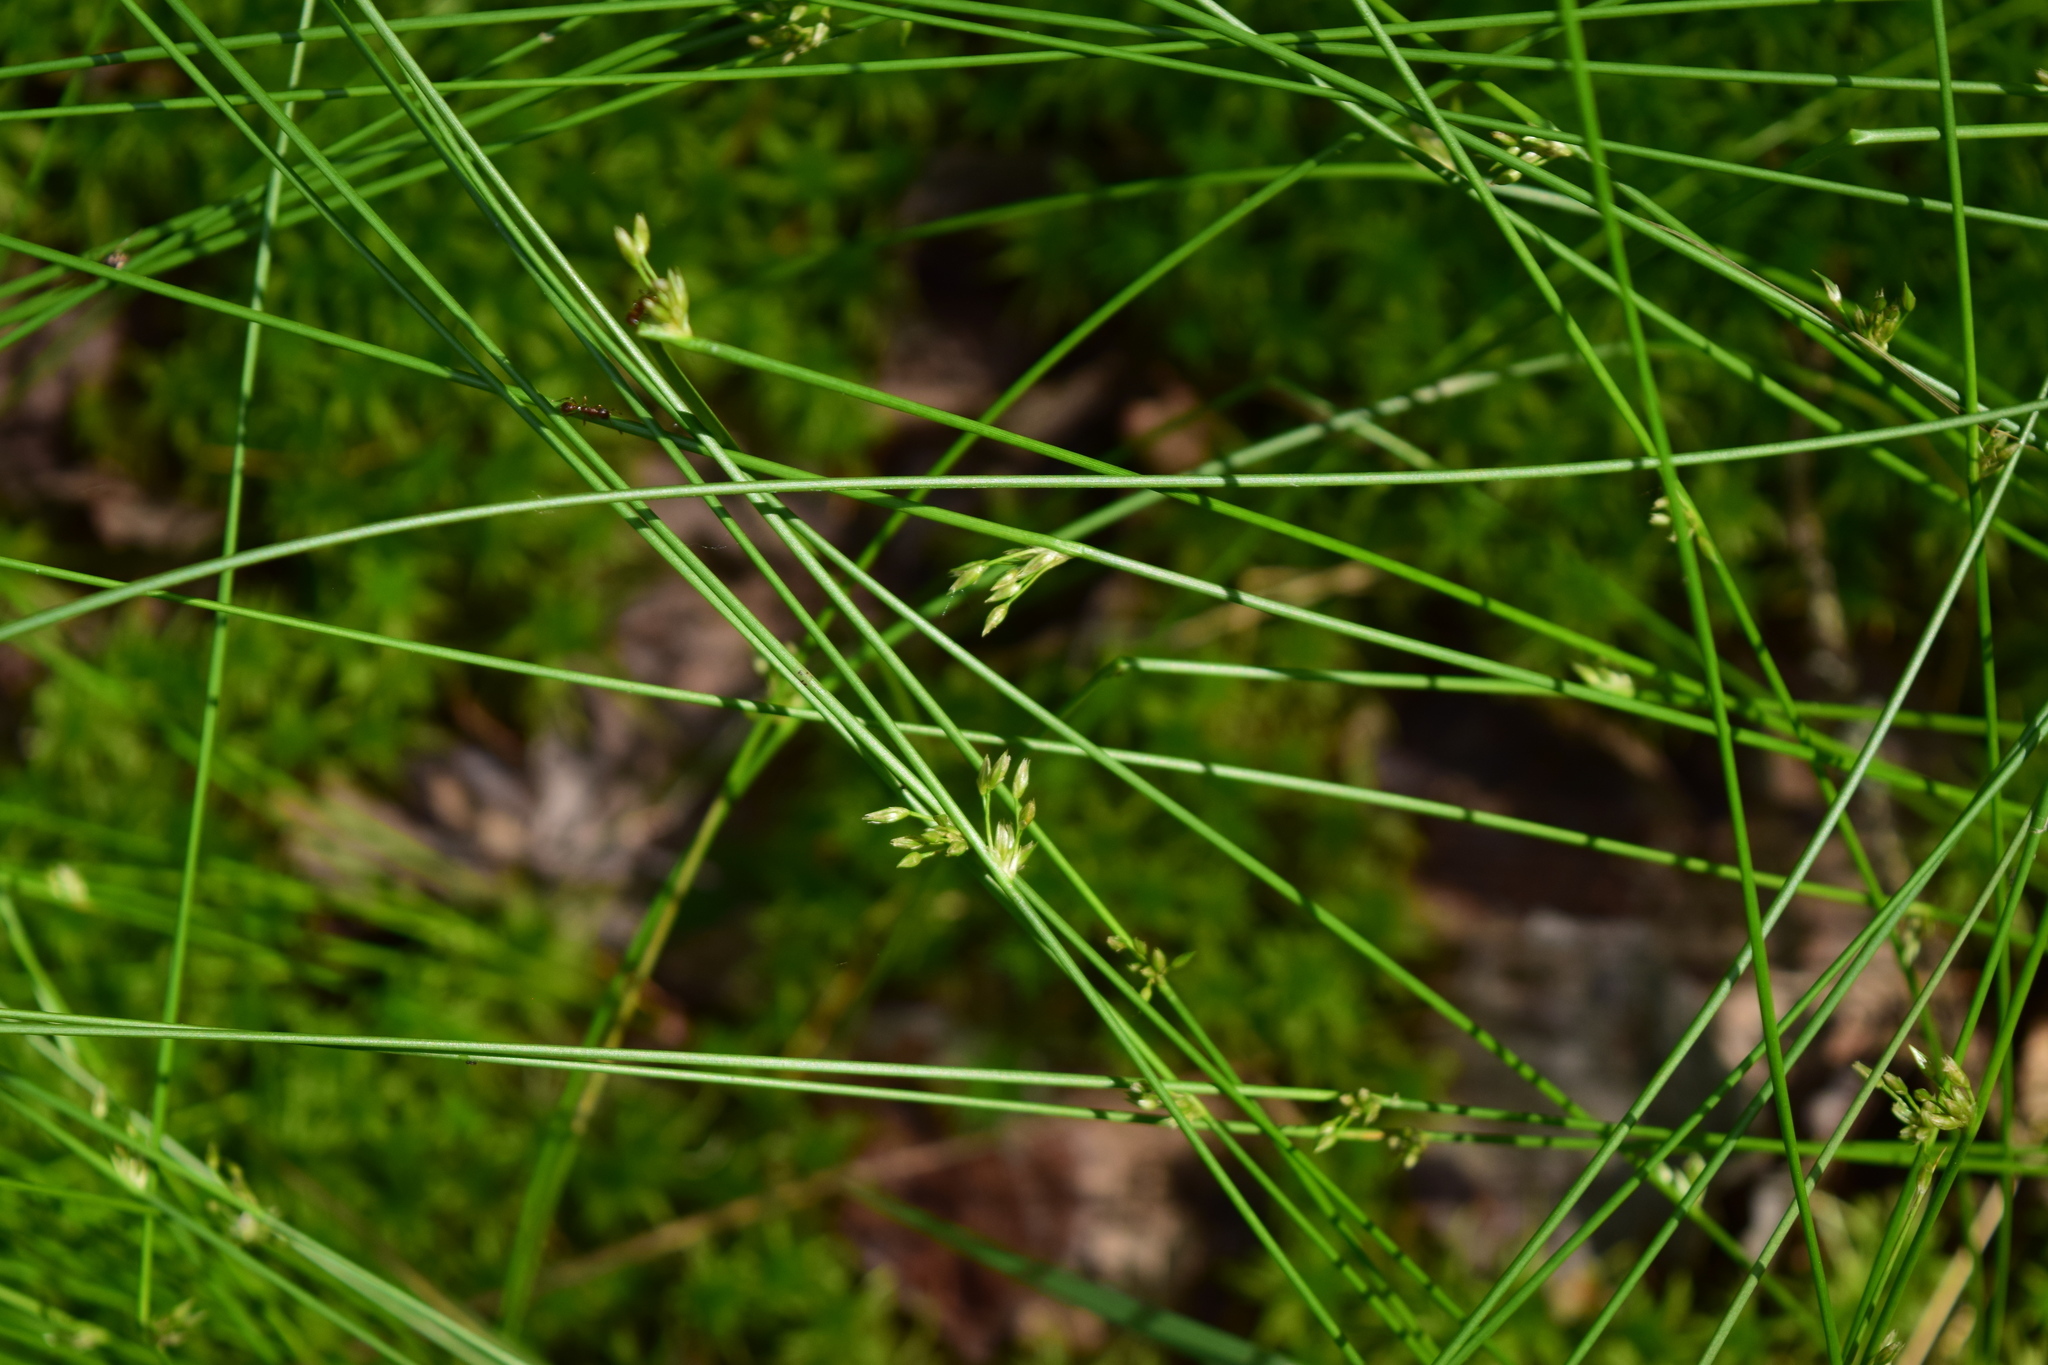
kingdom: Plantae
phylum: Tracheophyta
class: Liliopsida
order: Poales
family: Juncaceae
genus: Juncus
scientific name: Juncus filiformis
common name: Thread rush
